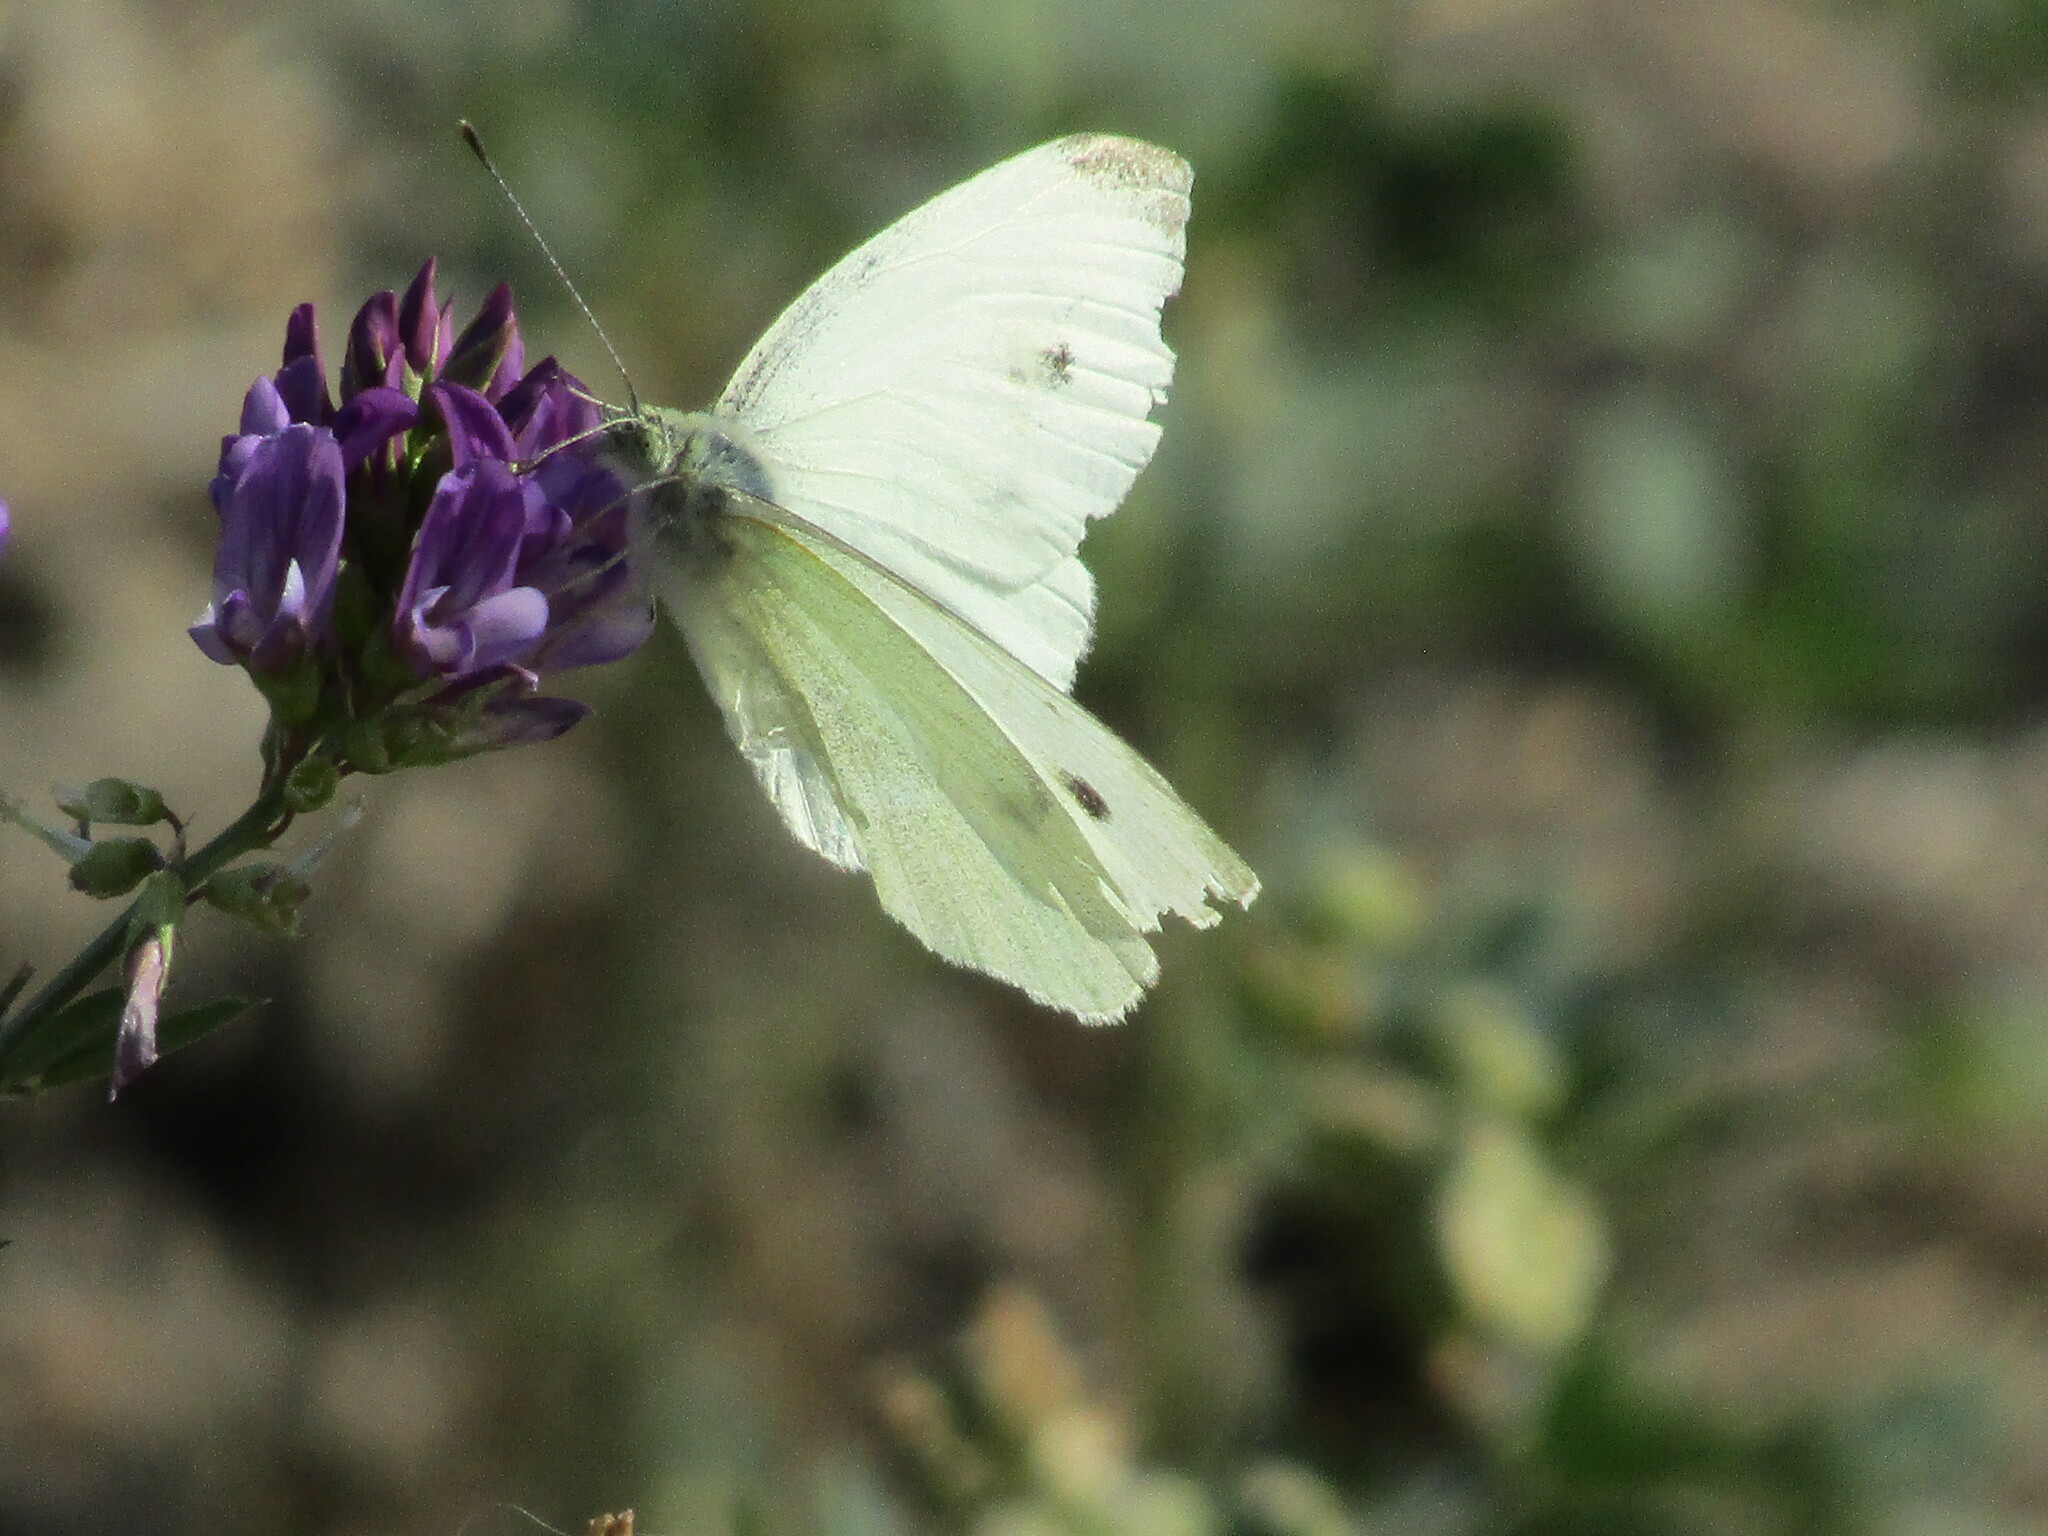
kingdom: Animalia
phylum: Arthropoda
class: Insecta
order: Lepidoptera
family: Pieridae
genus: Pieris
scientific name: Pieris rapae
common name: Small white
